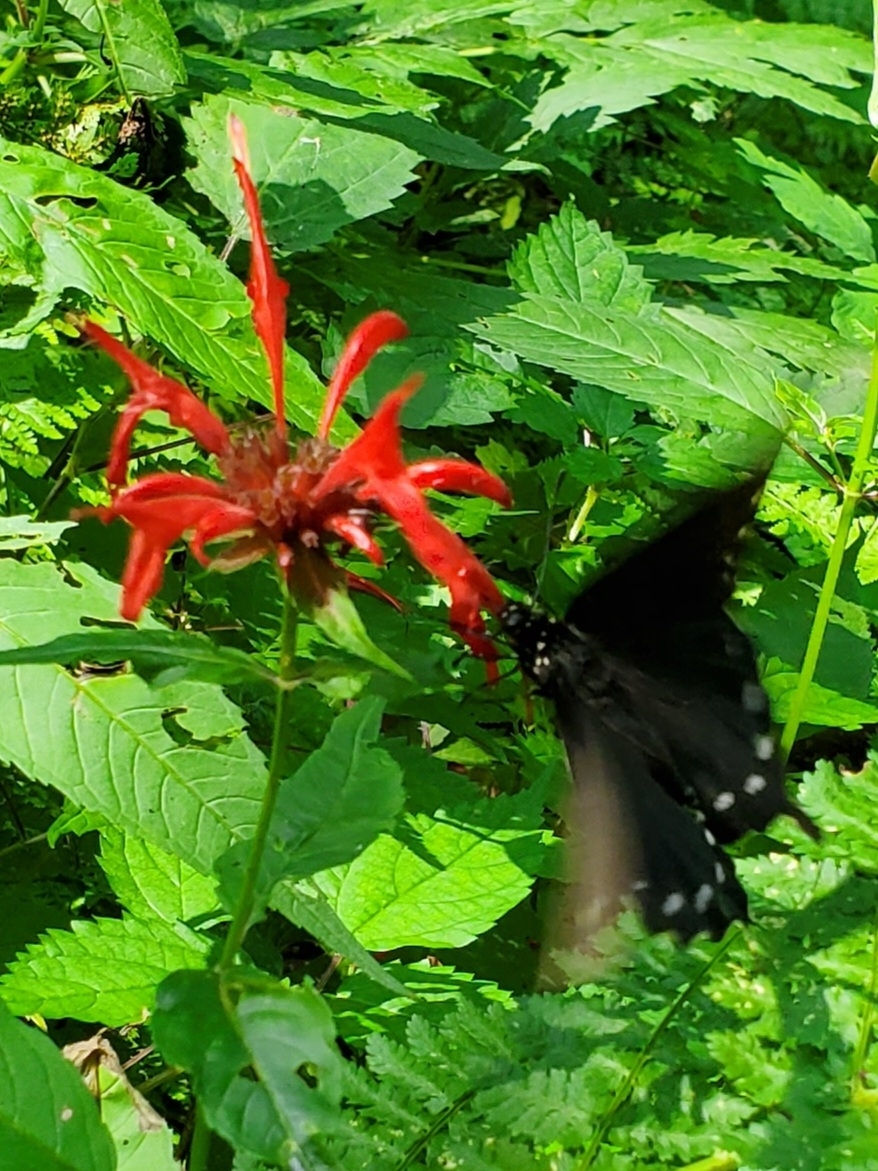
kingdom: Animalia
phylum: Arthropoda
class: Insecta
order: Lepidoptera
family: Papilionidae
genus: Battus
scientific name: Battus philenor
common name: Pipevine swallowtail
